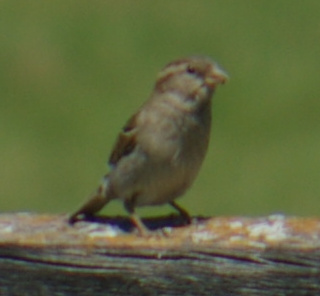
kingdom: Animalia
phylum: Chordata
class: Aves
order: Passeriformes
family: Passeridae
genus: Passer
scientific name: Passer domesticus
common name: House sparrow
